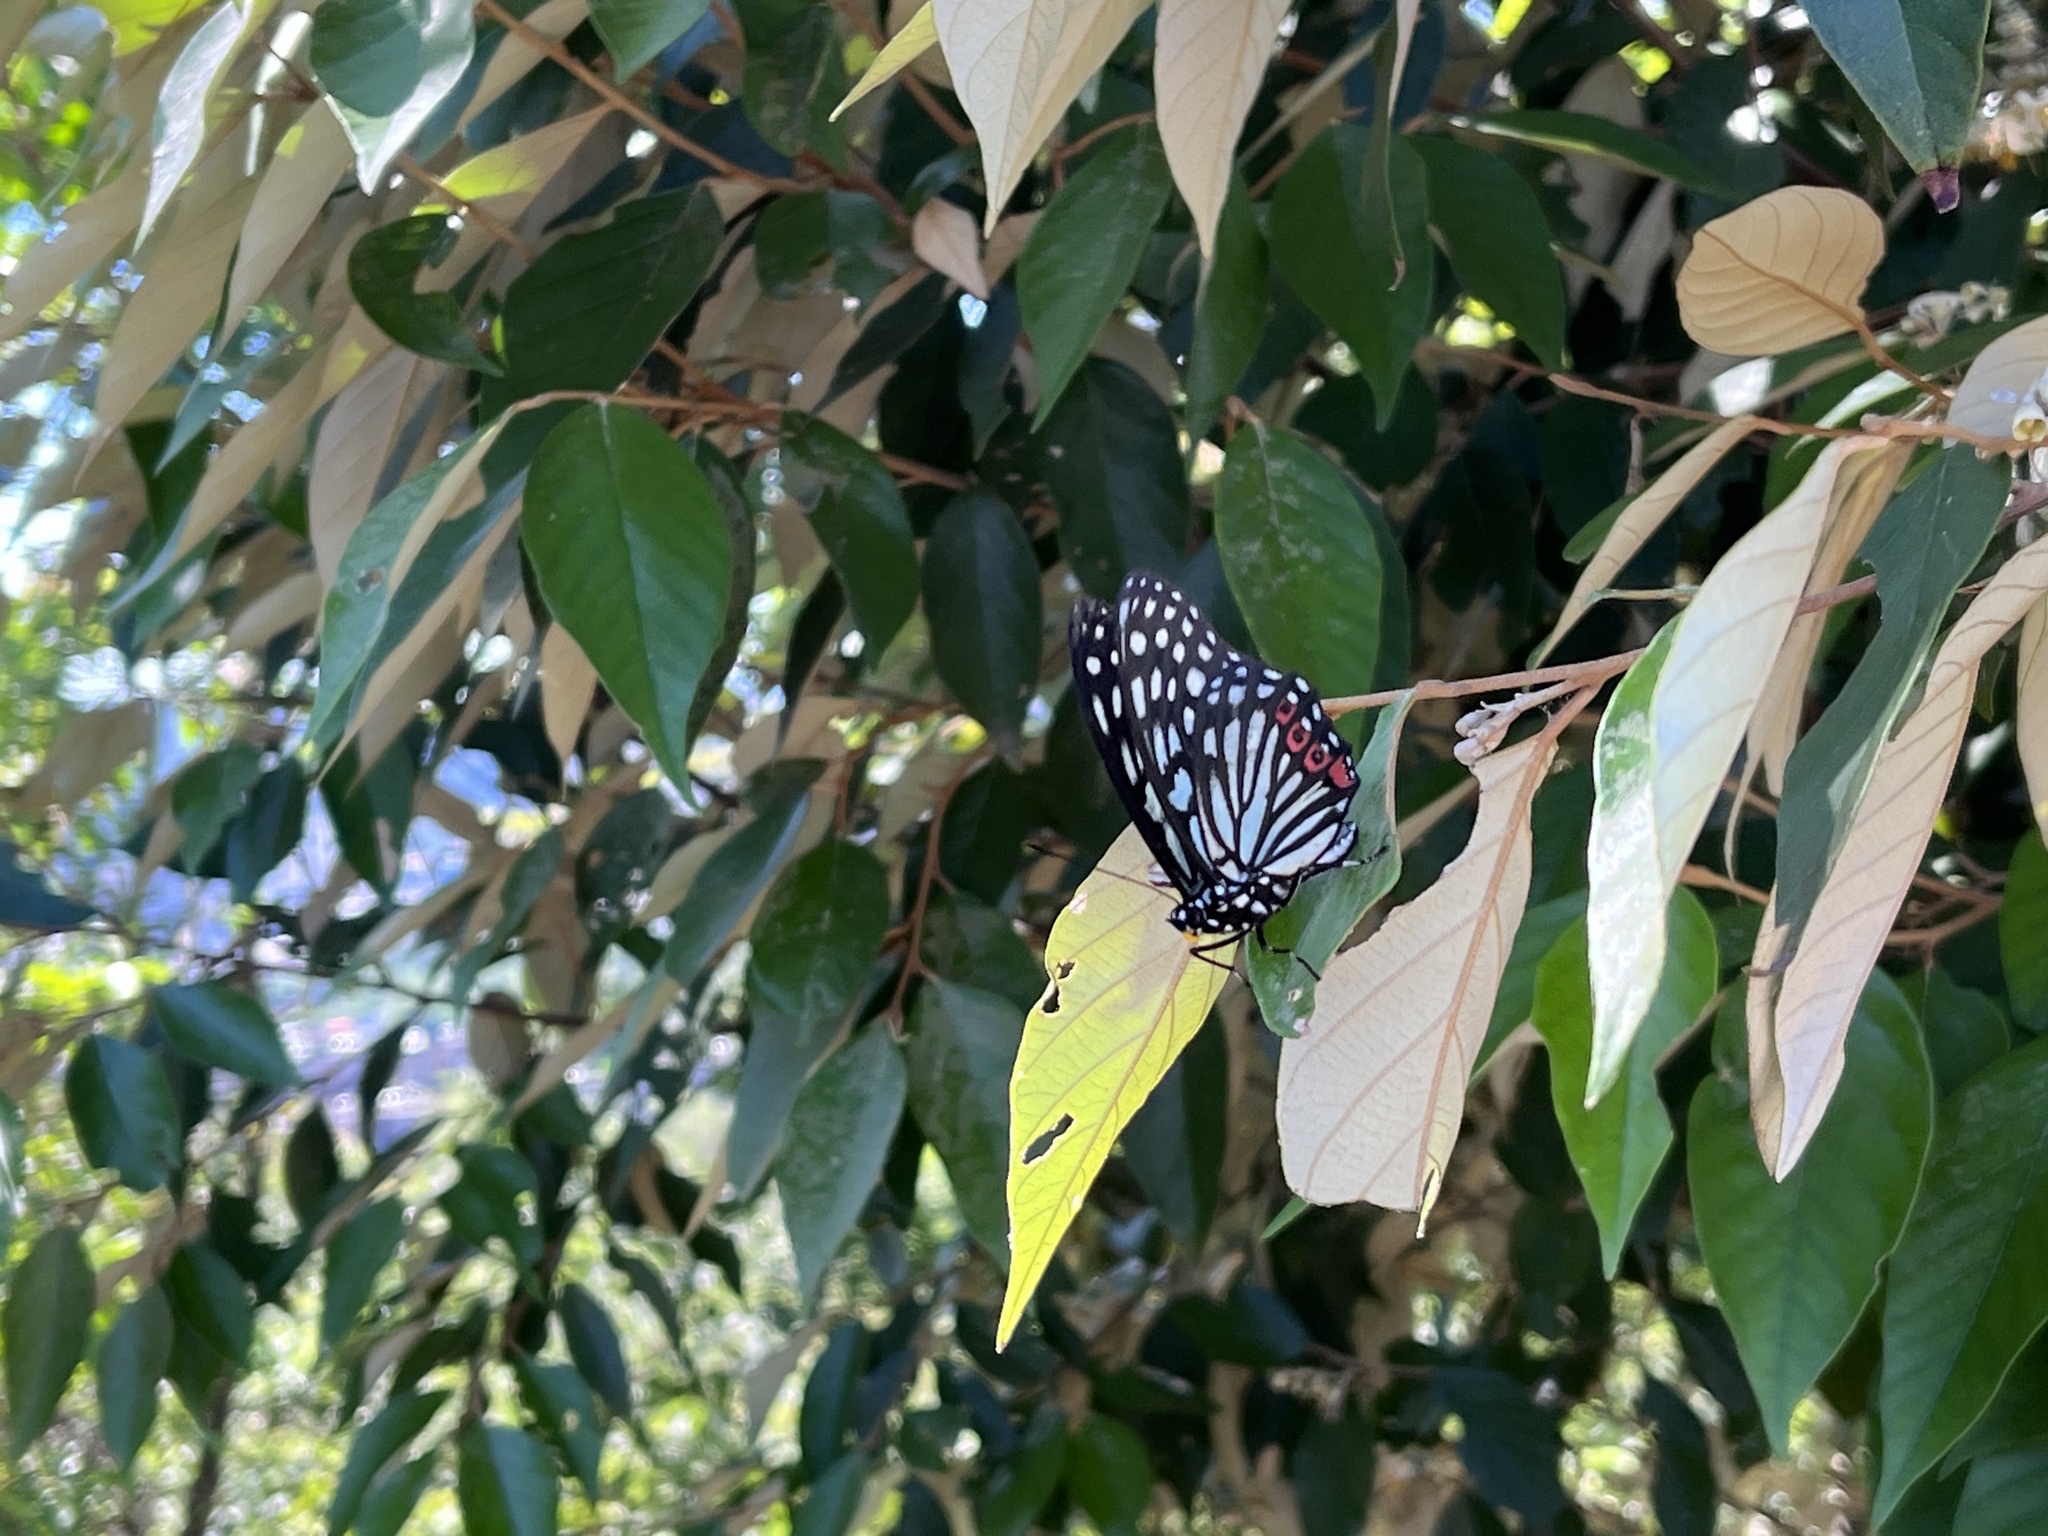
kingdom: Animalia
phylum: Arthropoda
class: Insecta
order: Lepidoptera
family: Nymphalidae
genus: Hestina
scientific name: Hestina assimilis
